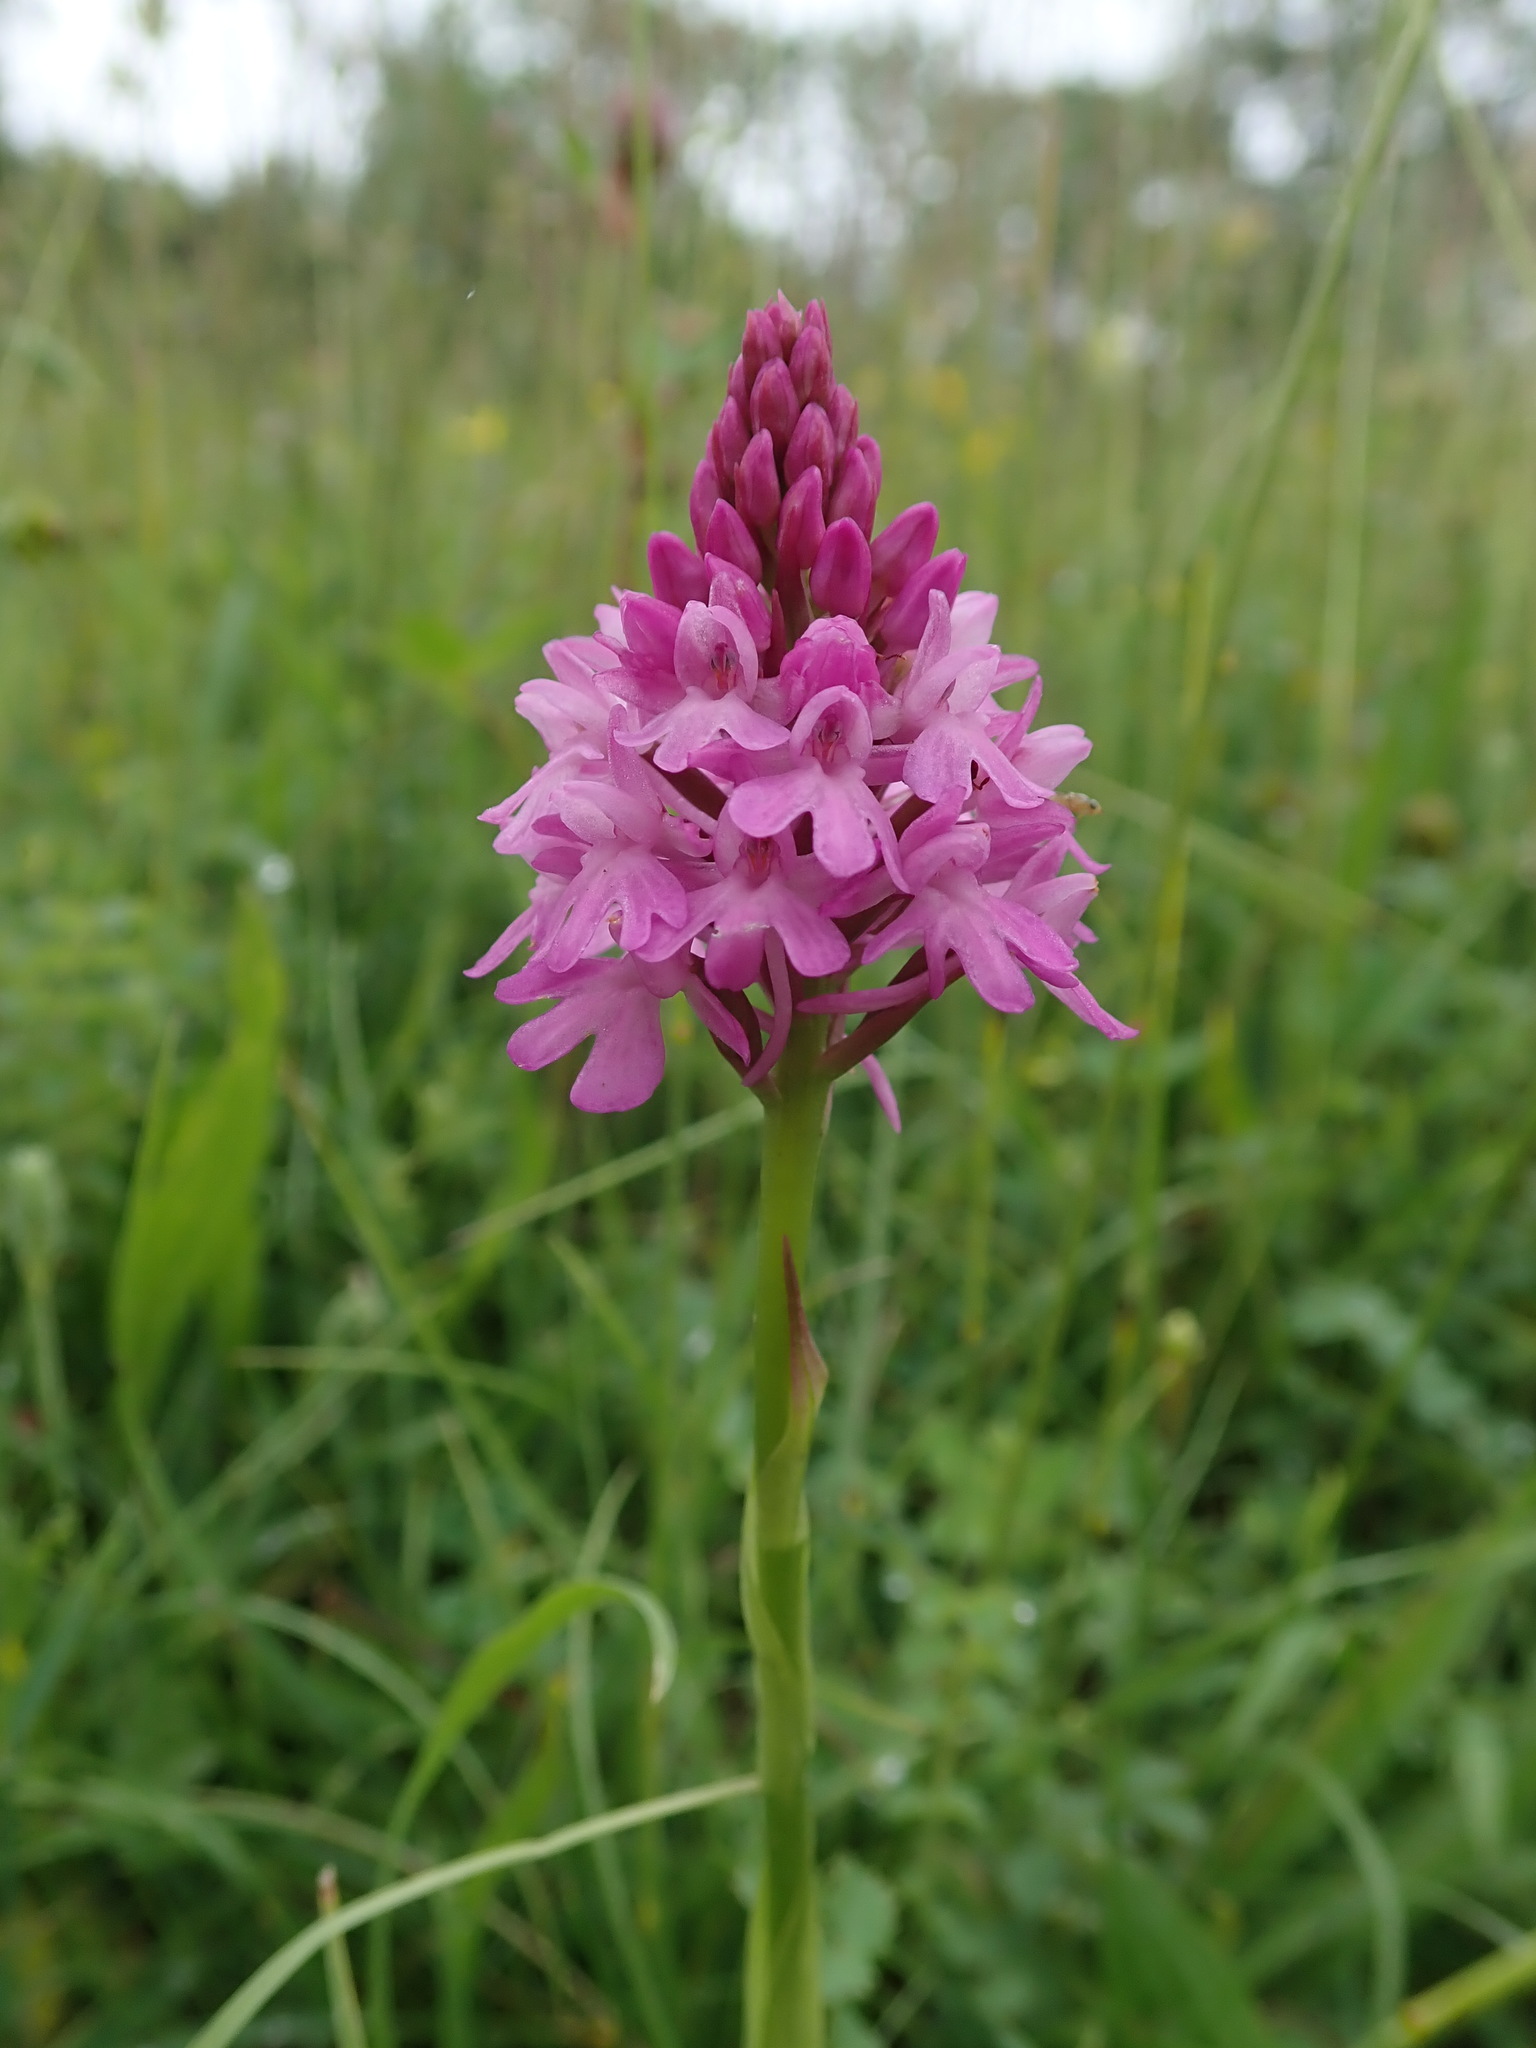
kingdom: Plantae
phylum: Tracheophyta
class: Liliopsida
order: Asparagales
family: Orchidaceae
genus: Anacamptis
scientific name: Anacamptis pyramidalis
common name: Pyramidal orchid
